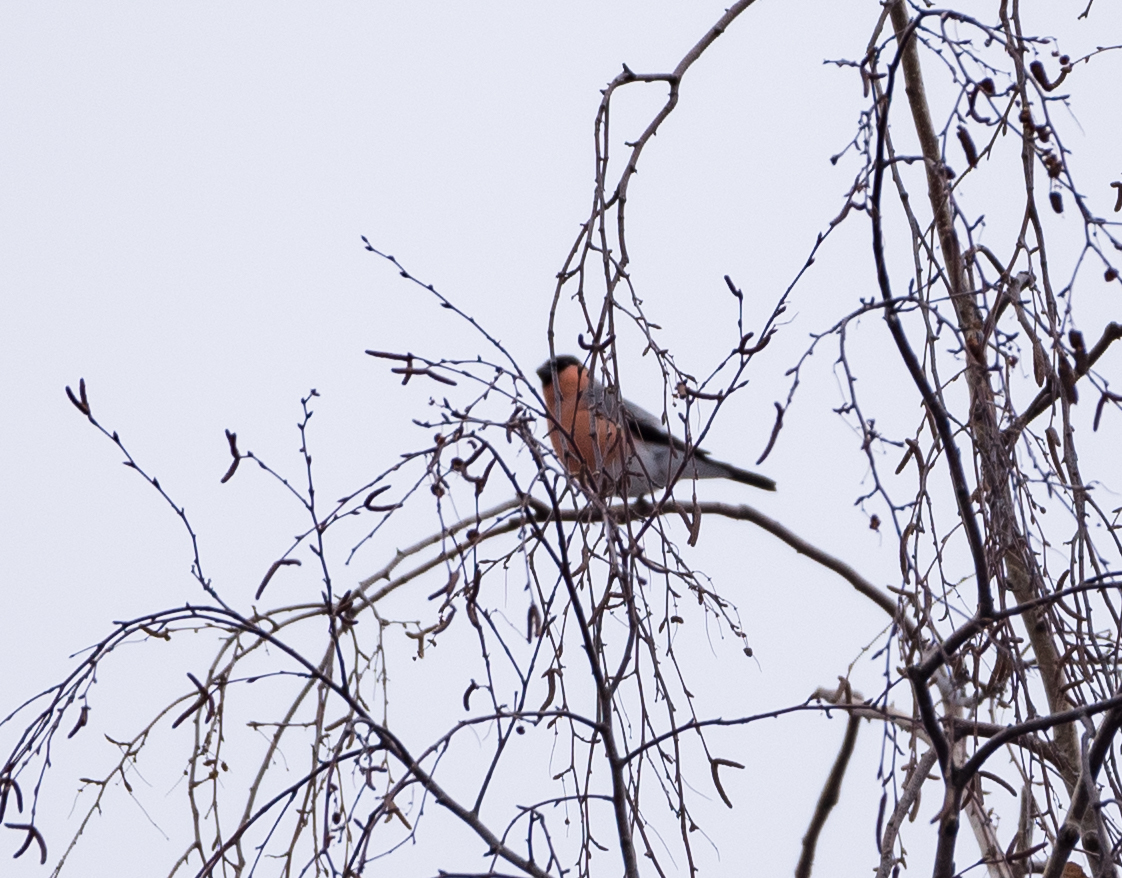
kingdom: Animalia
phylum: Chordata
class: Aves
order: Passeriformes
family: Fringillidae
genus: Pyrrhula
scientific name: Pyrrhula pyrrhula
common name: Eurasian bullfinch
